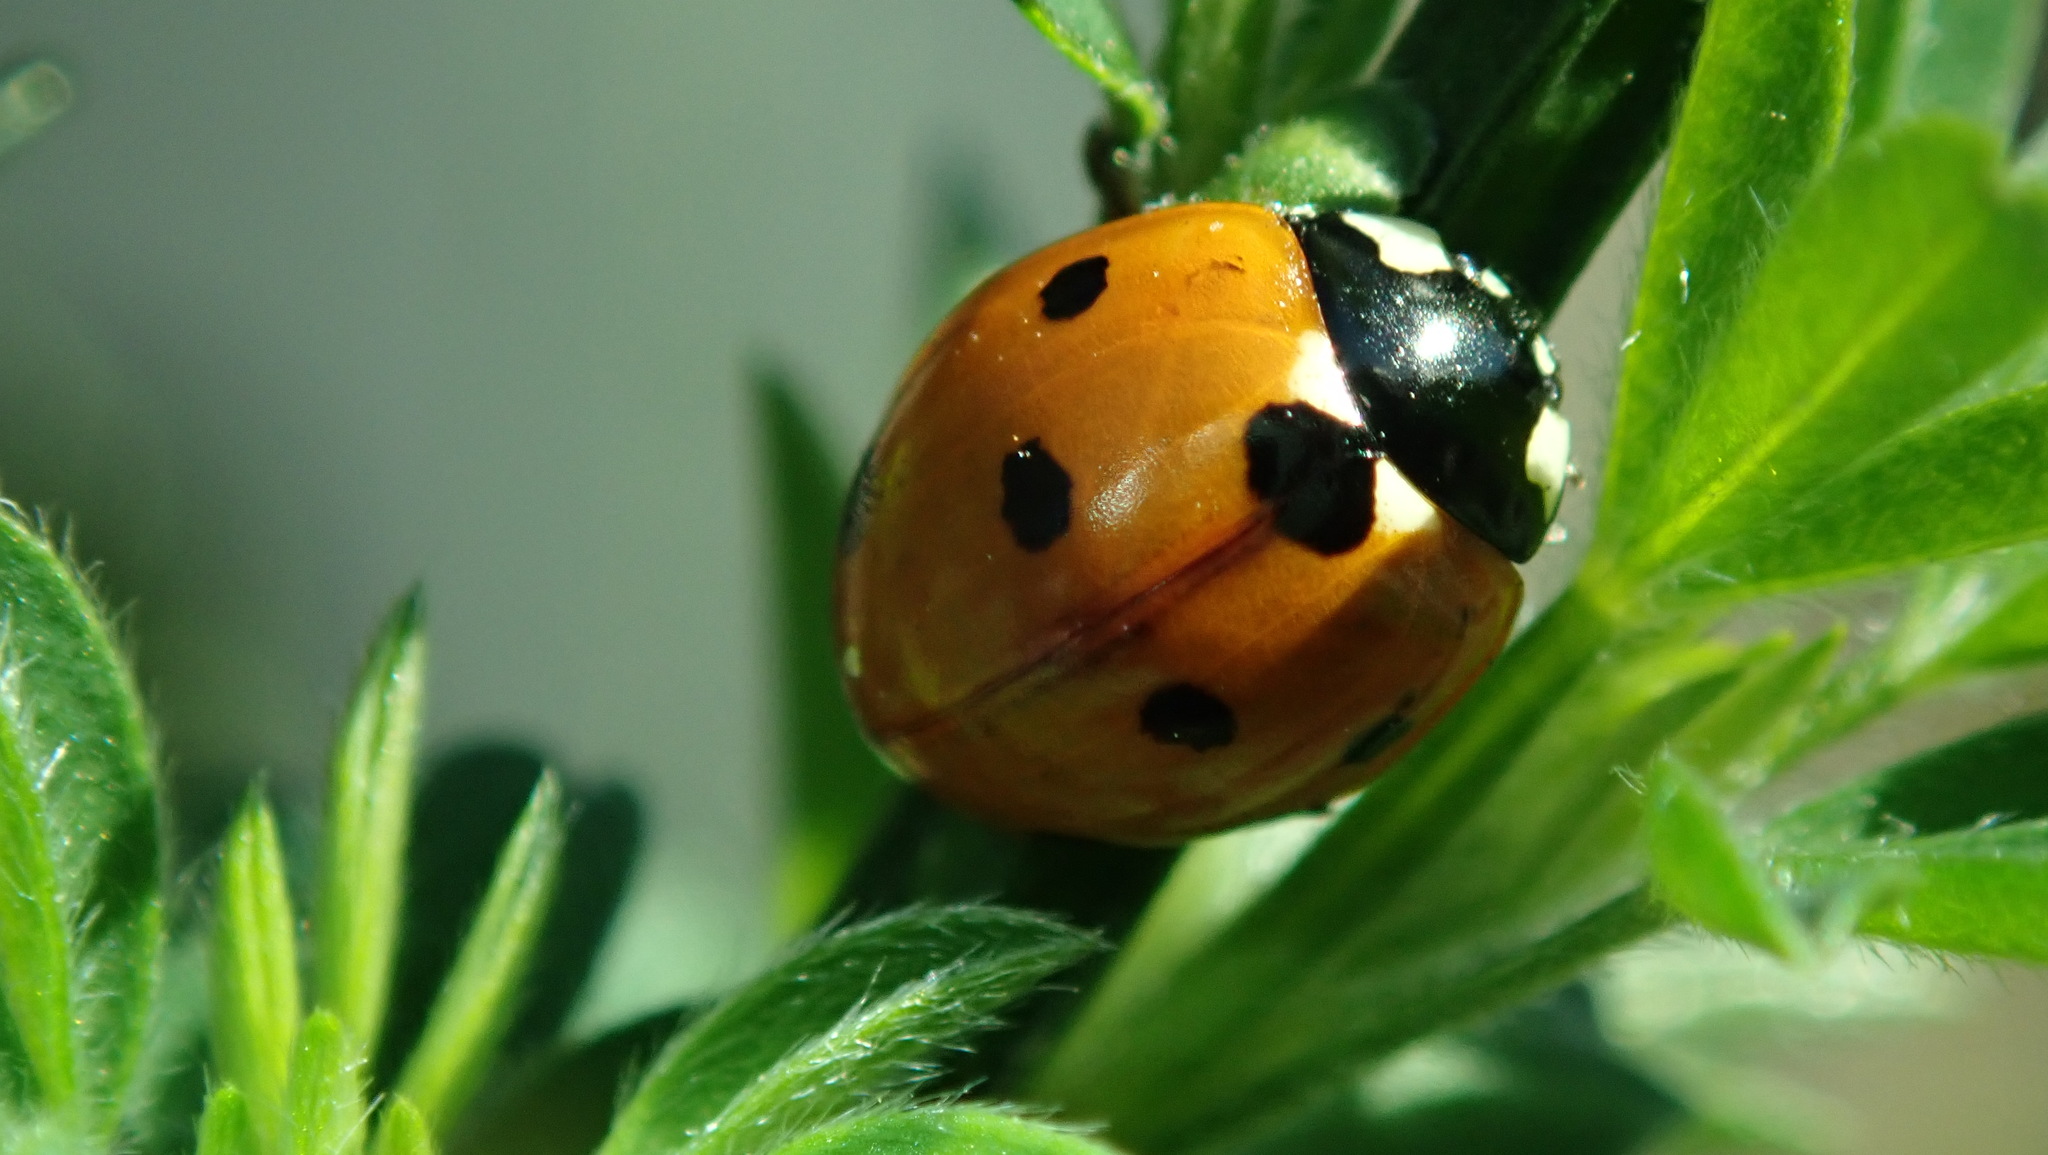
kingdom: Animalia
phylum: Arthropoda
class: Insecta
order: Coleoptera
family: Coccinellidae
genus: Coccinella
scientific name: Coccinella septempunctata
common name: Sevenspotted lady beetle
